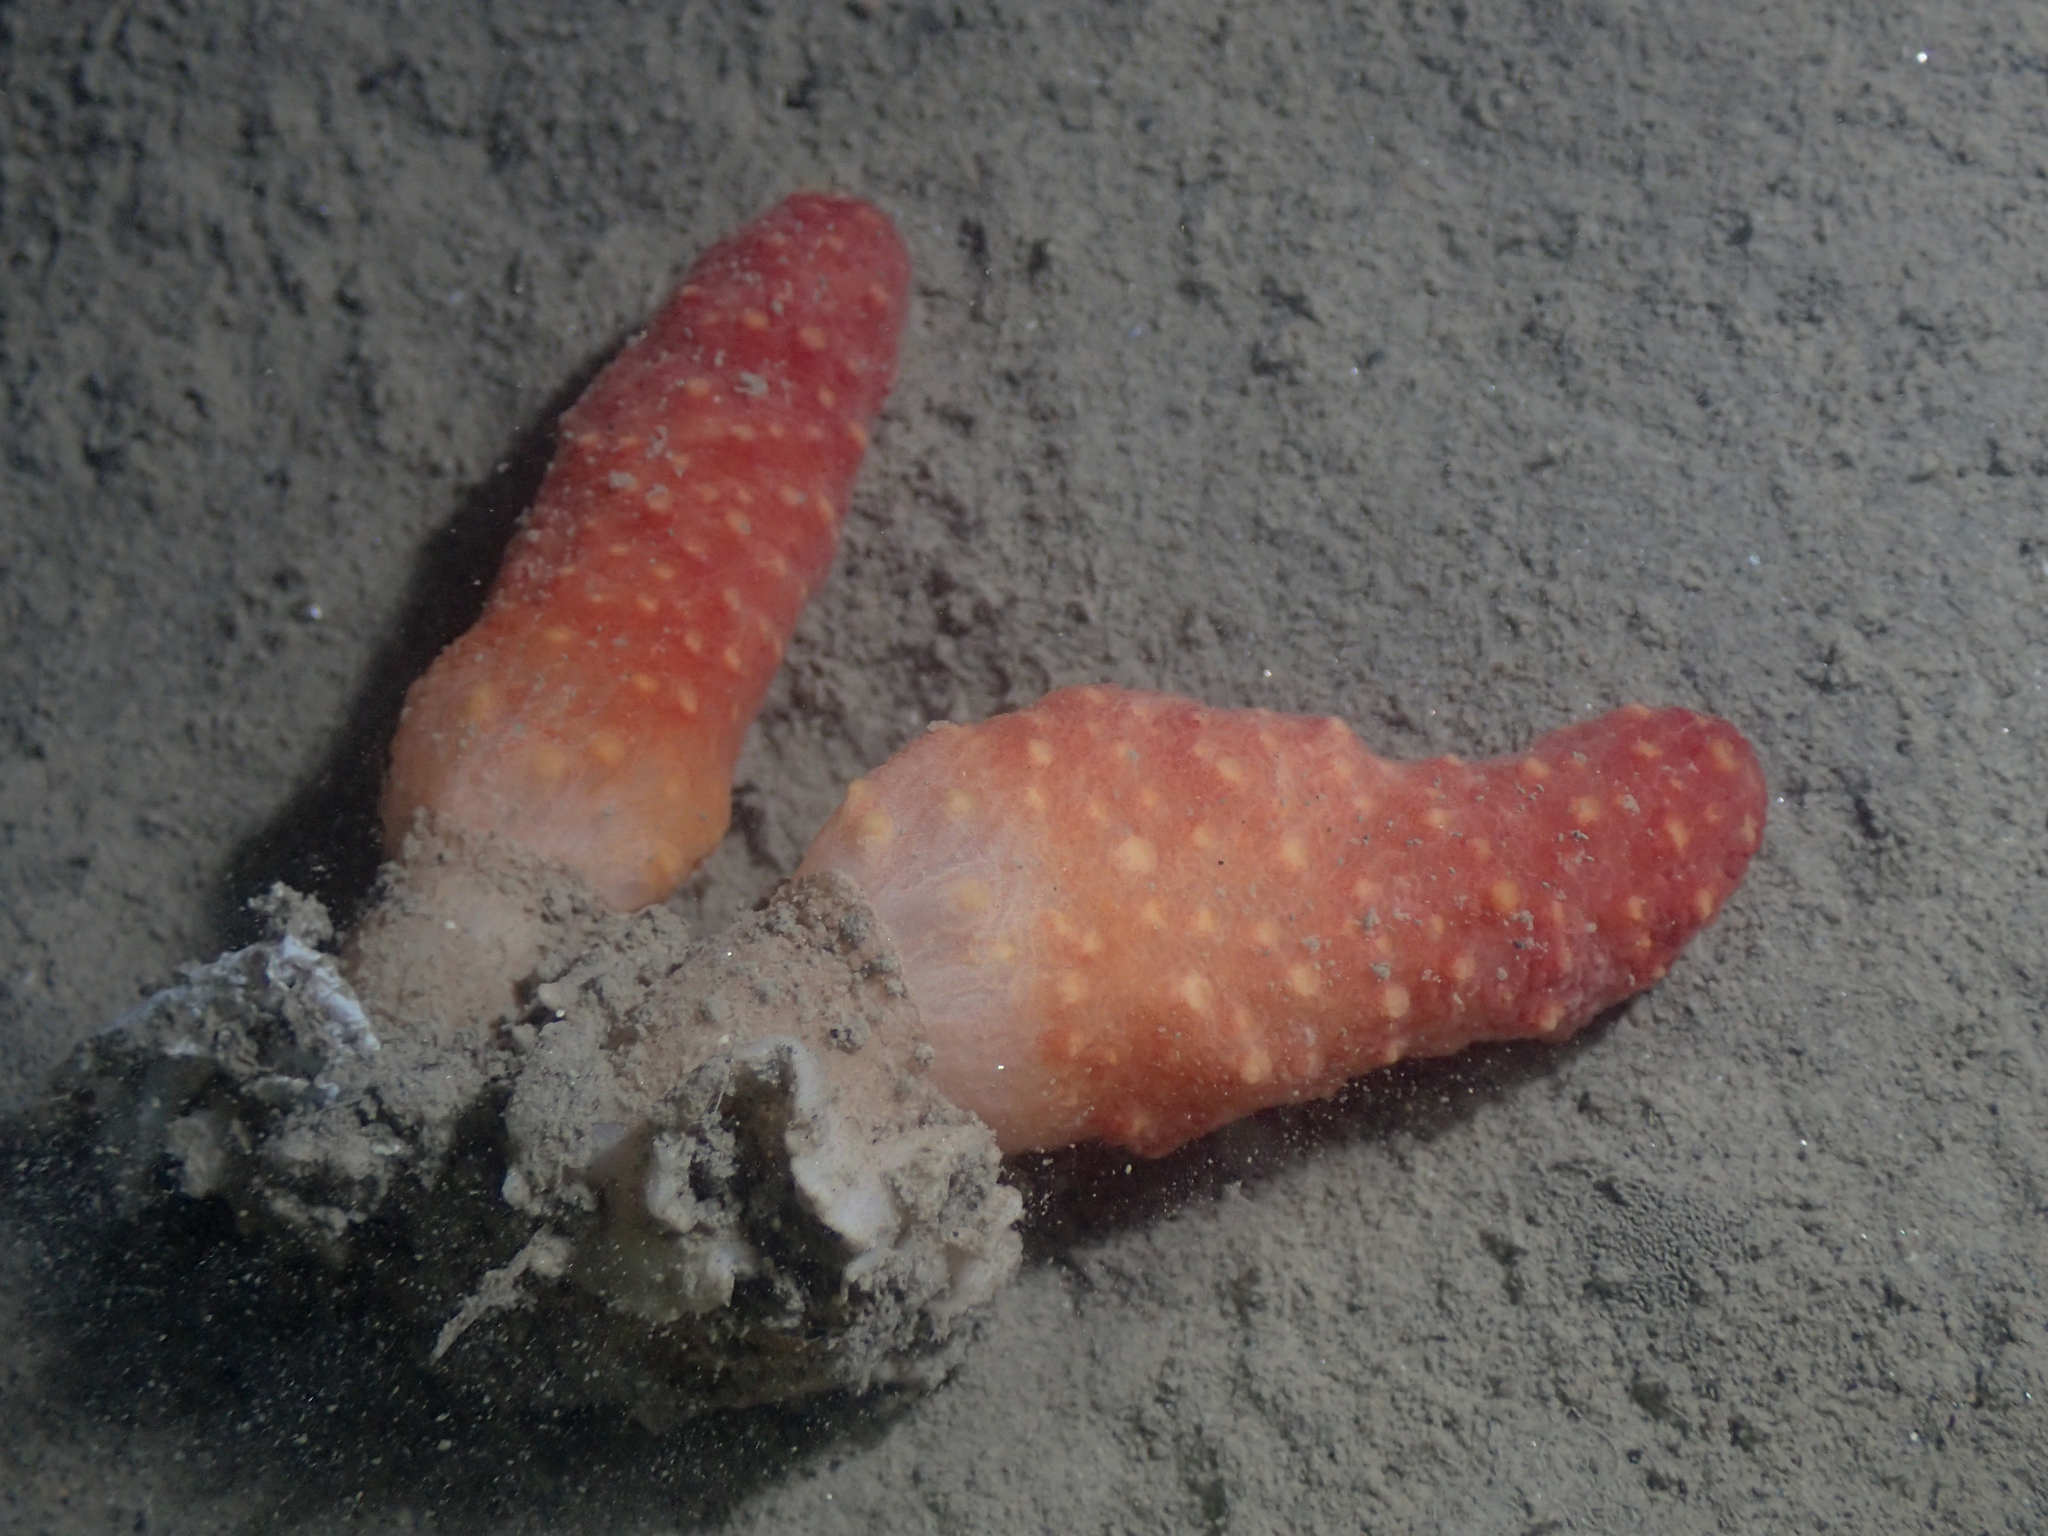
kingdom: Animalia
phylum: Cnidaria
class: Anthozoa
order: Malacalcyonacea
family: Alcyoniidae
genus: Alcyonium
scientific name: Alcyonium palmatum
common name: Mediterranean sea-fingers
